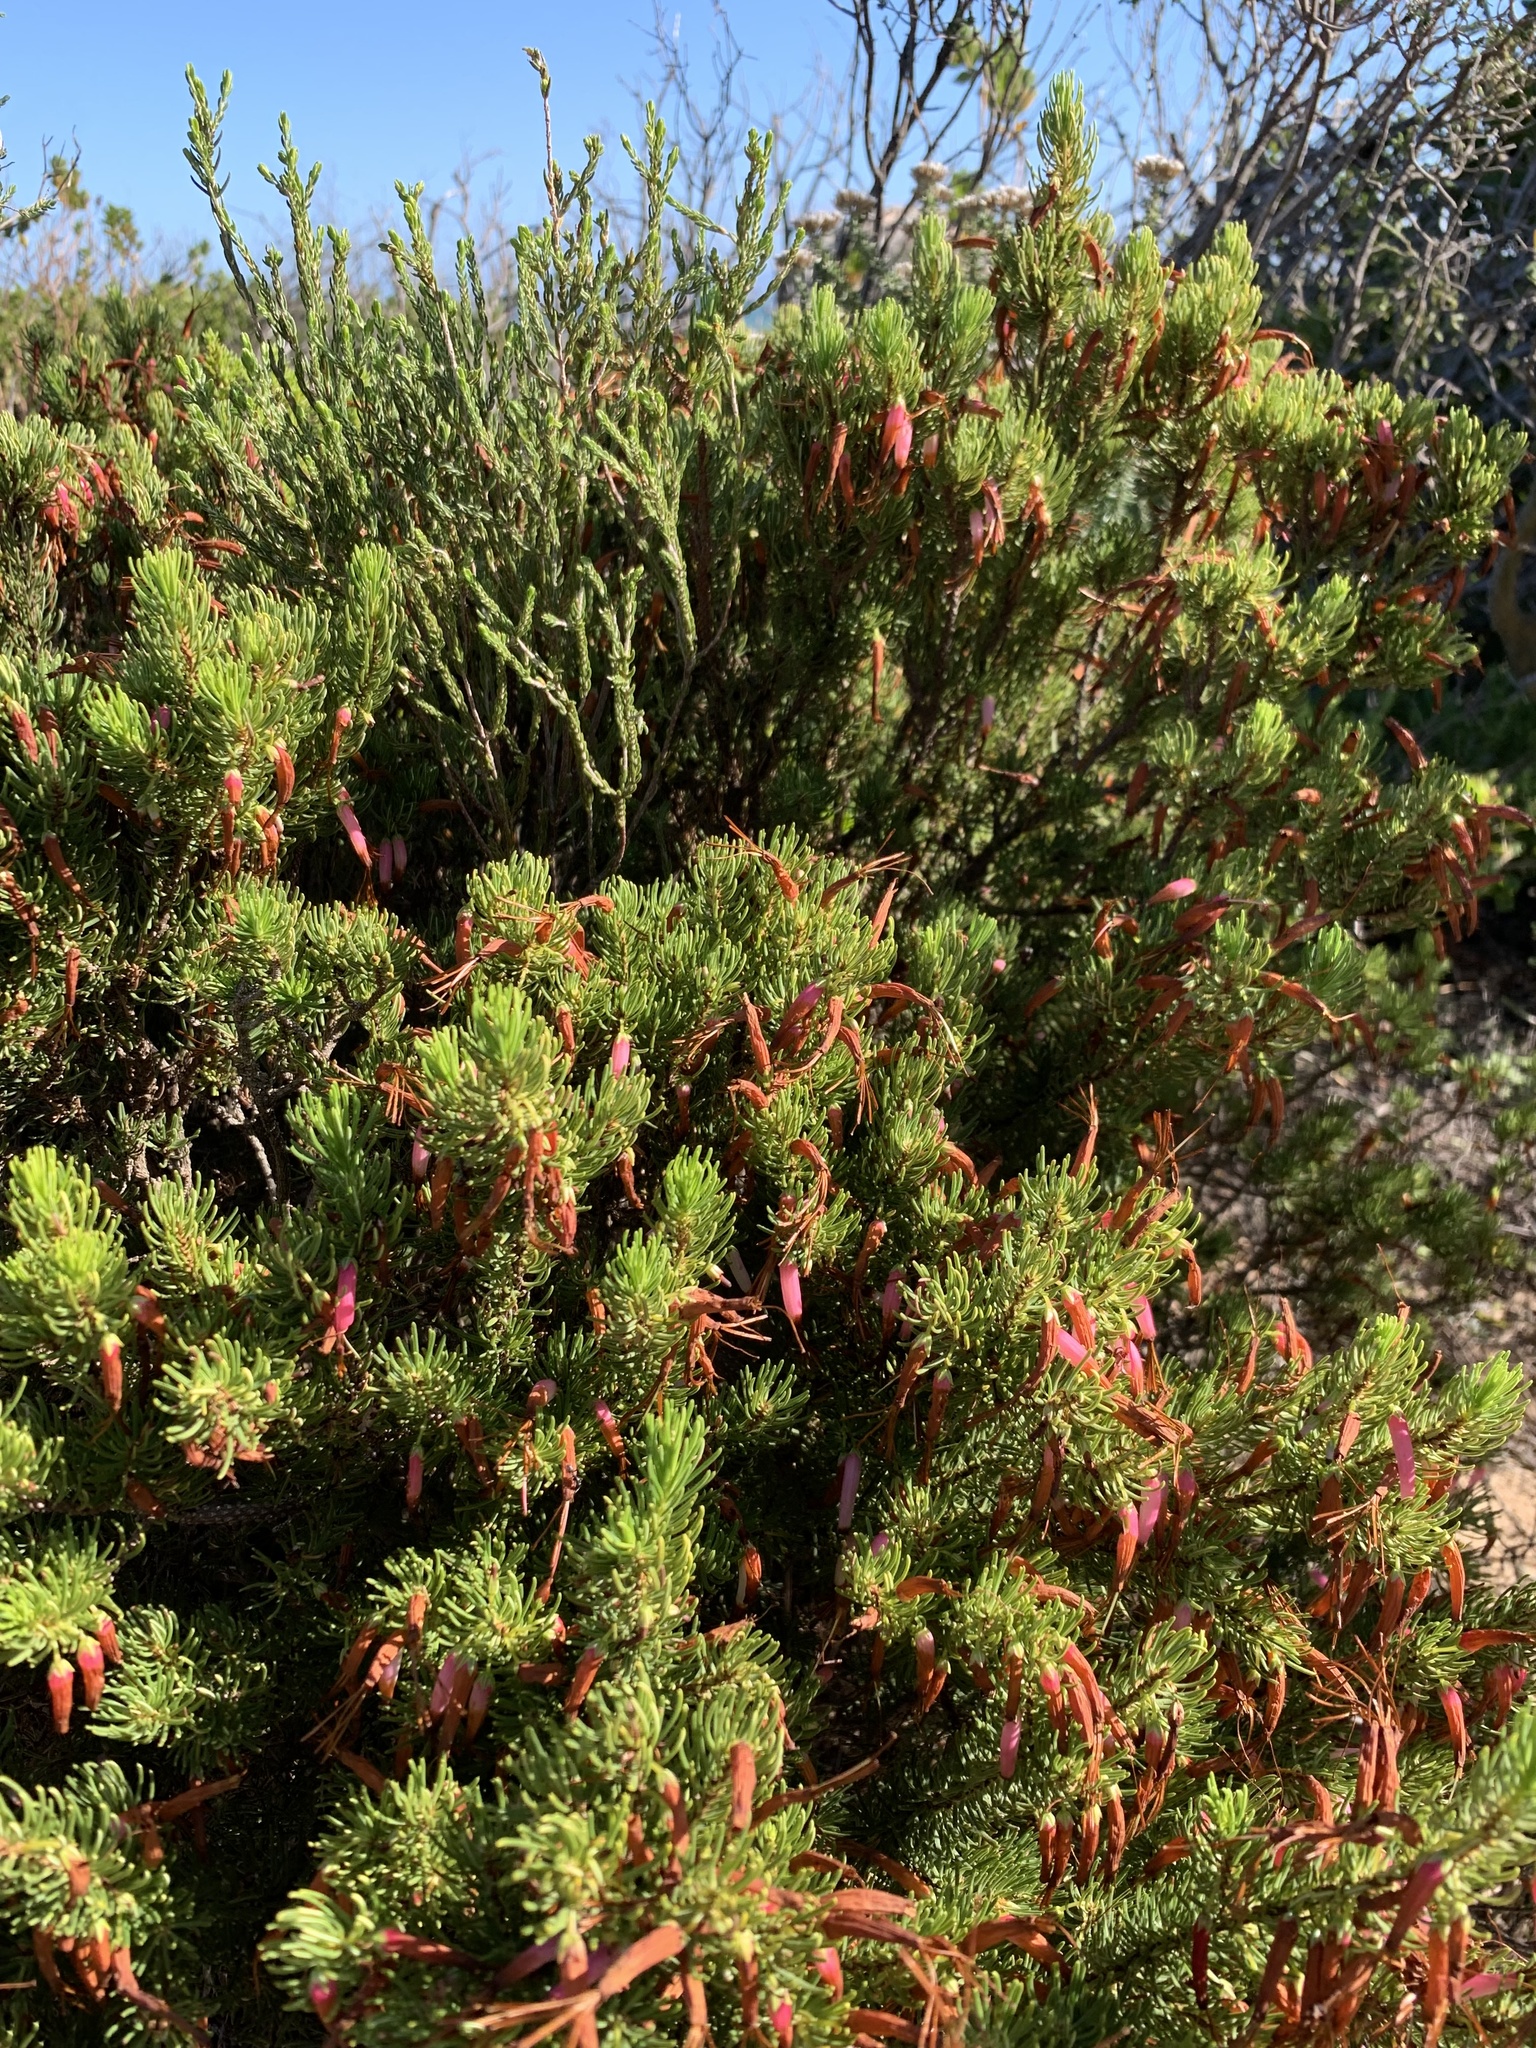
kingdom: Plantae
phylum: Tracheophyta
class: Magnoliopsida
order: Ericales
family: Ericaceae
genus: Erica
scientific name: Erica plukenetii
